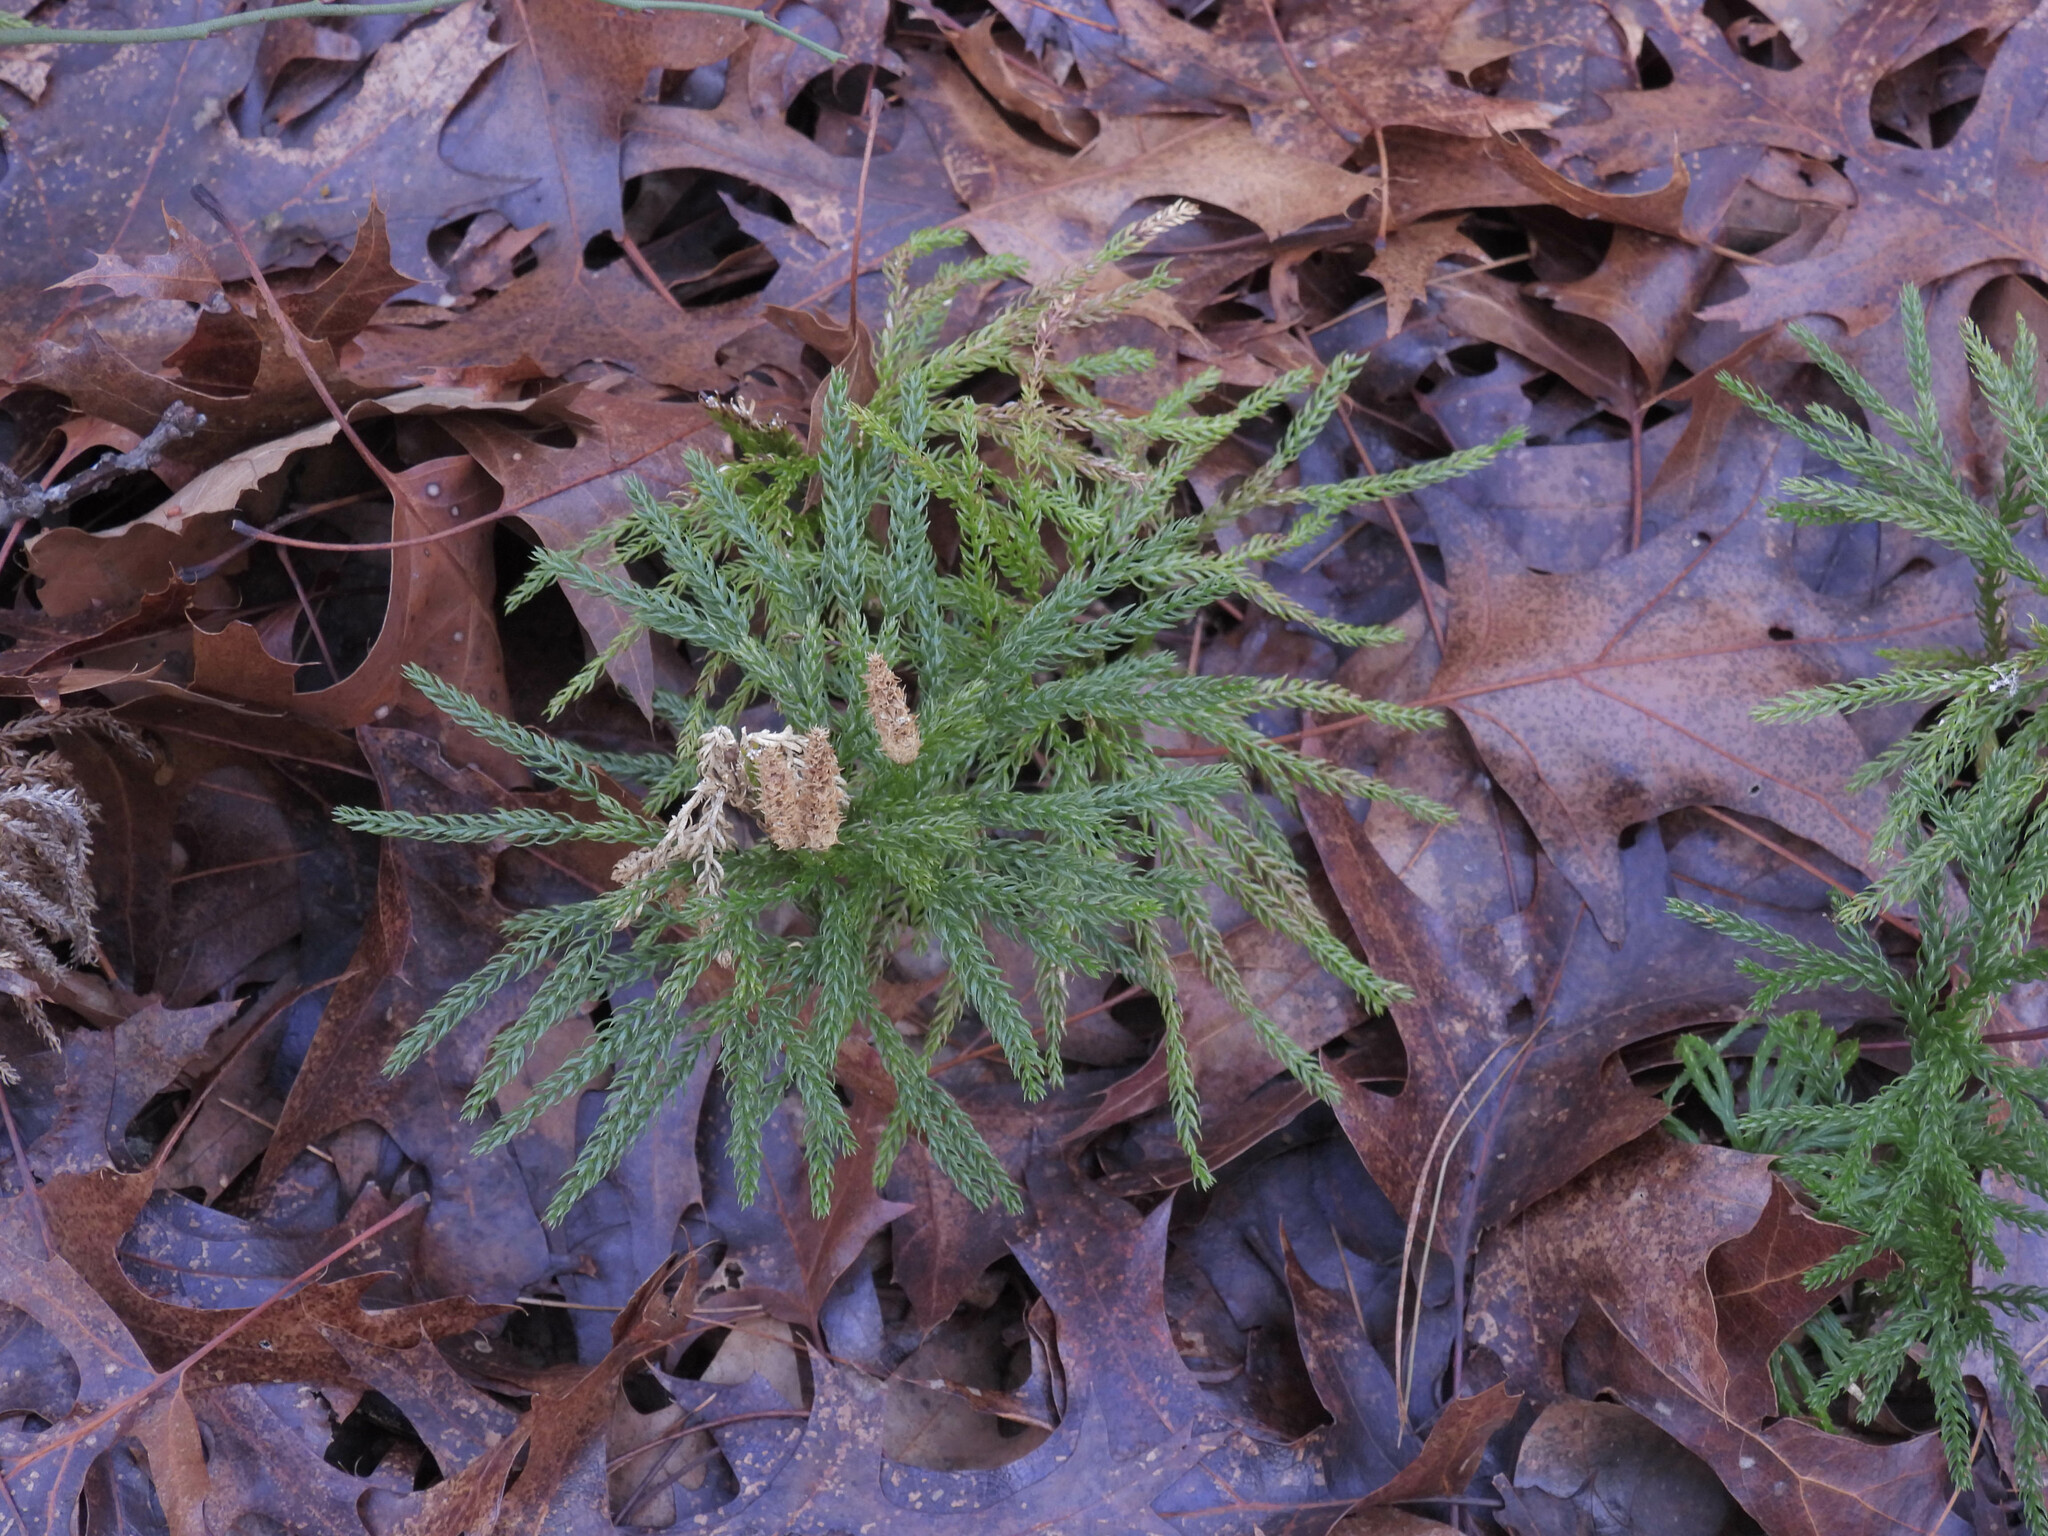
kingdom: Plantae
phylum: Tracheophyta
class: Lycopodiopsida
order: Lycopodiales
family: Lycopodiaceae
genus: Dendrolycopodium
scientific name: Dendrolycopodium obscurum
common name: Common ground-pine
